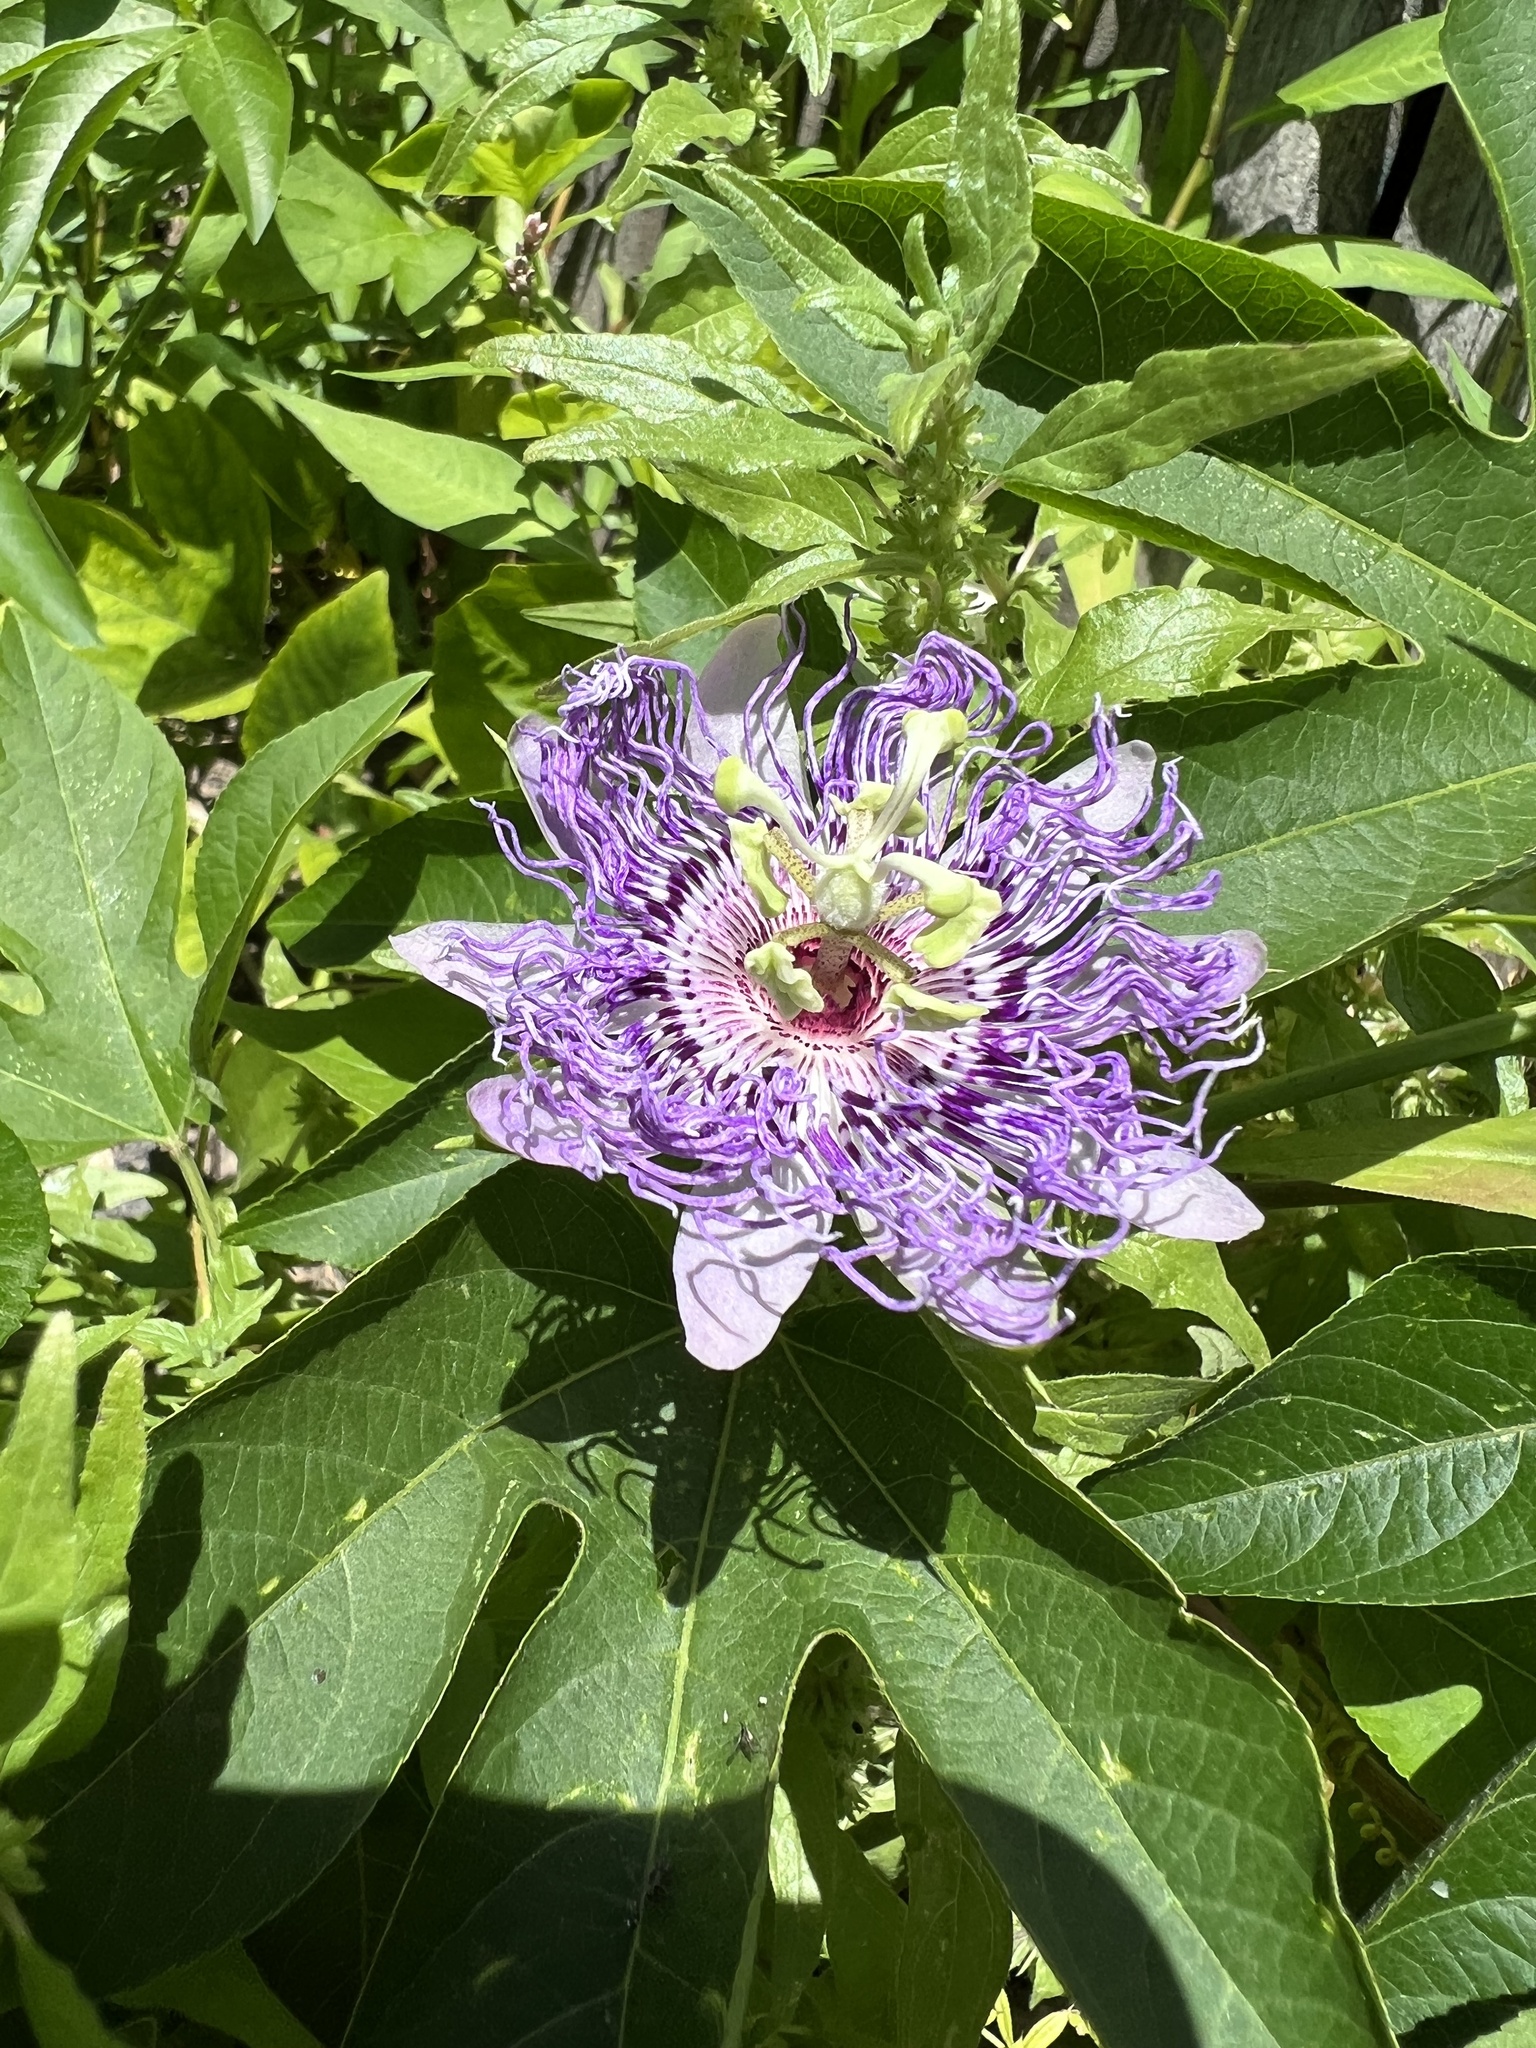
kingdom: Plantae
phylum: Tracheophyta
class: Magnoliopsida
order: Malpighiales
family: Passifloraceae
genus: Passiflora
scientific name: Passiflora incarnata
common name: Apricot-vine
